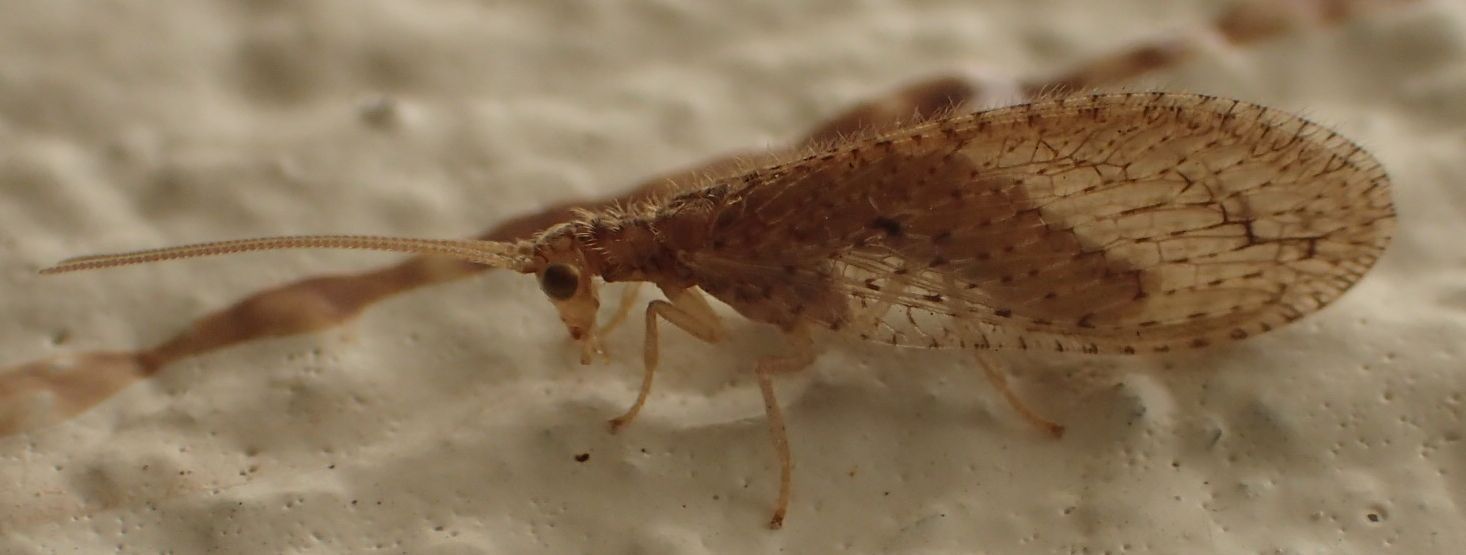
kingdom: Animalia
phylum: Arthropoda
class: Insecta
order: Neuroptera
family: Hemerobiidae
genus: Micromus
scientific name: Micromus tasmaniae
